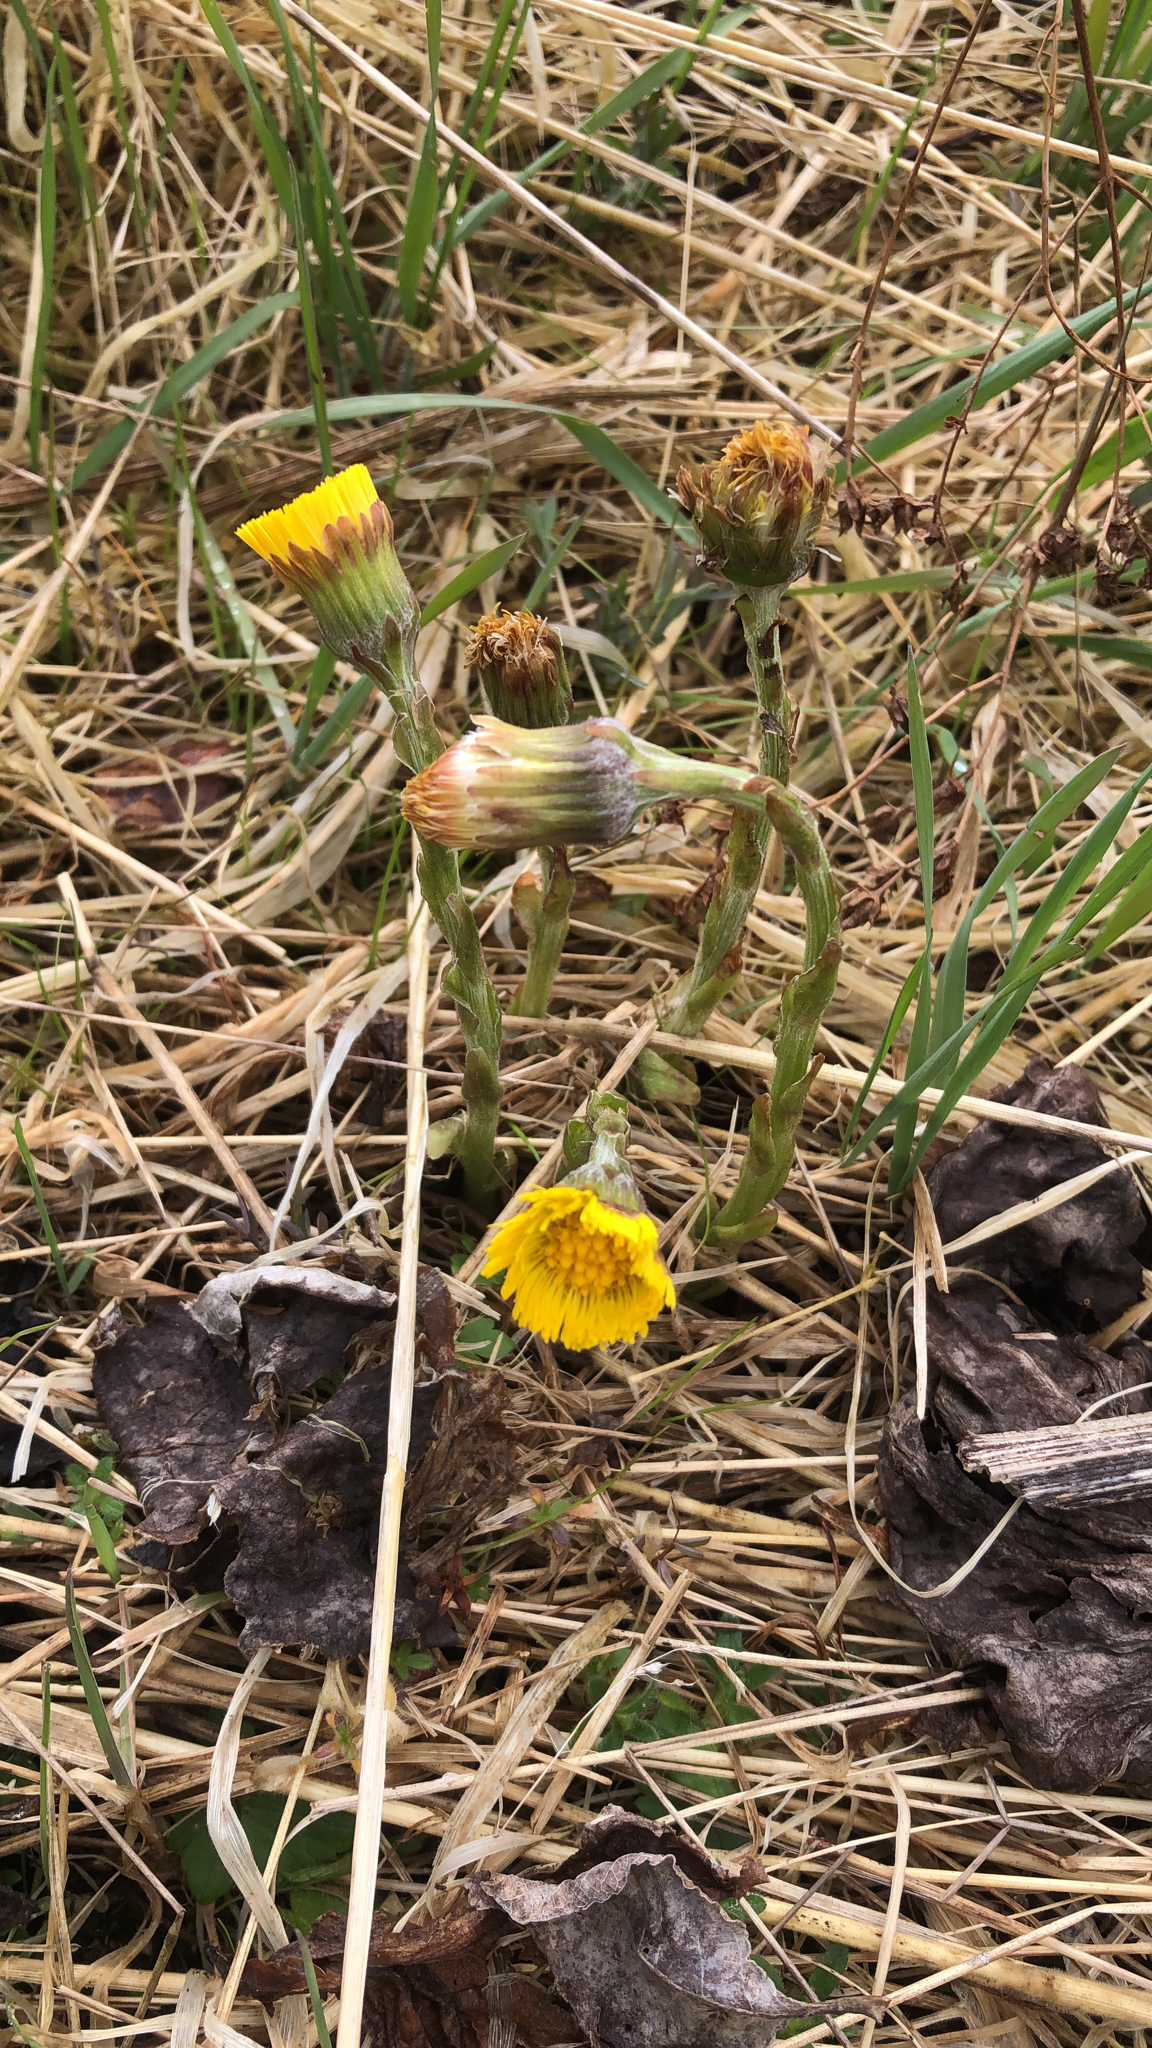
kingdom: Plantae
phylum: Tracheophyta
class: Magnoliopsida
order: Asterales
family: Asteraceae
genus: Tussilago
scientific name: Tussilago farfara
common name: Coltsfoot
